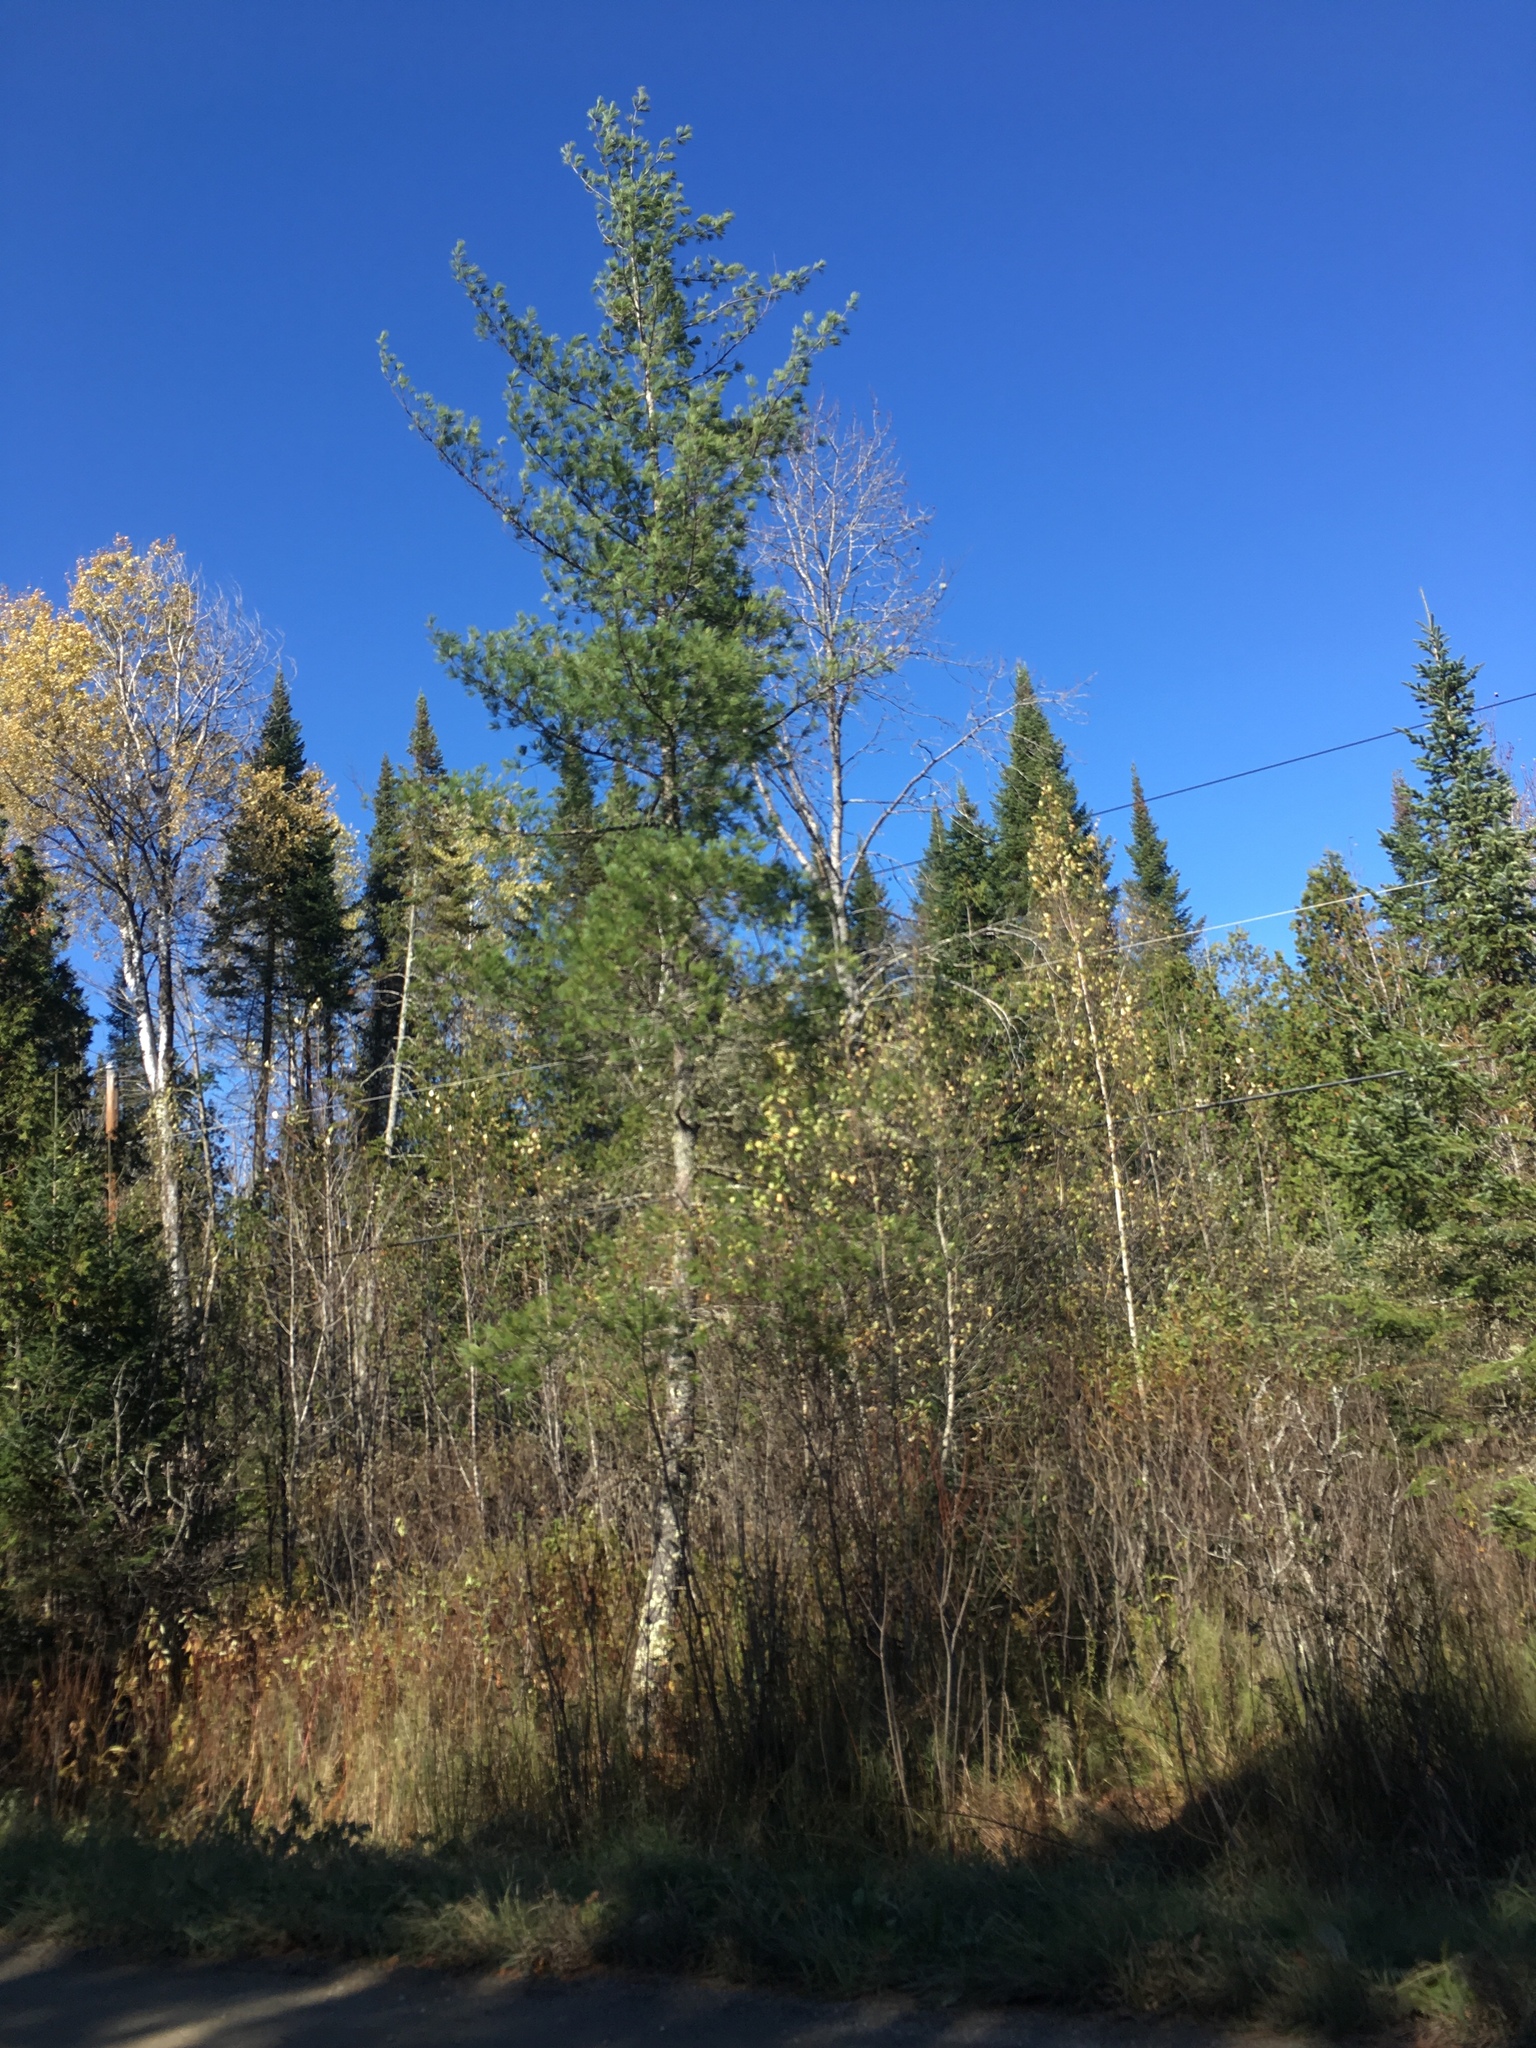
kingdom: Plantae
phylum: Tracheophyta
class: Pinopsida
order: Pinales
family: Pinaceae
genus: Pinus
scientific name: Pinus strobus
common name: Weymouth pine
